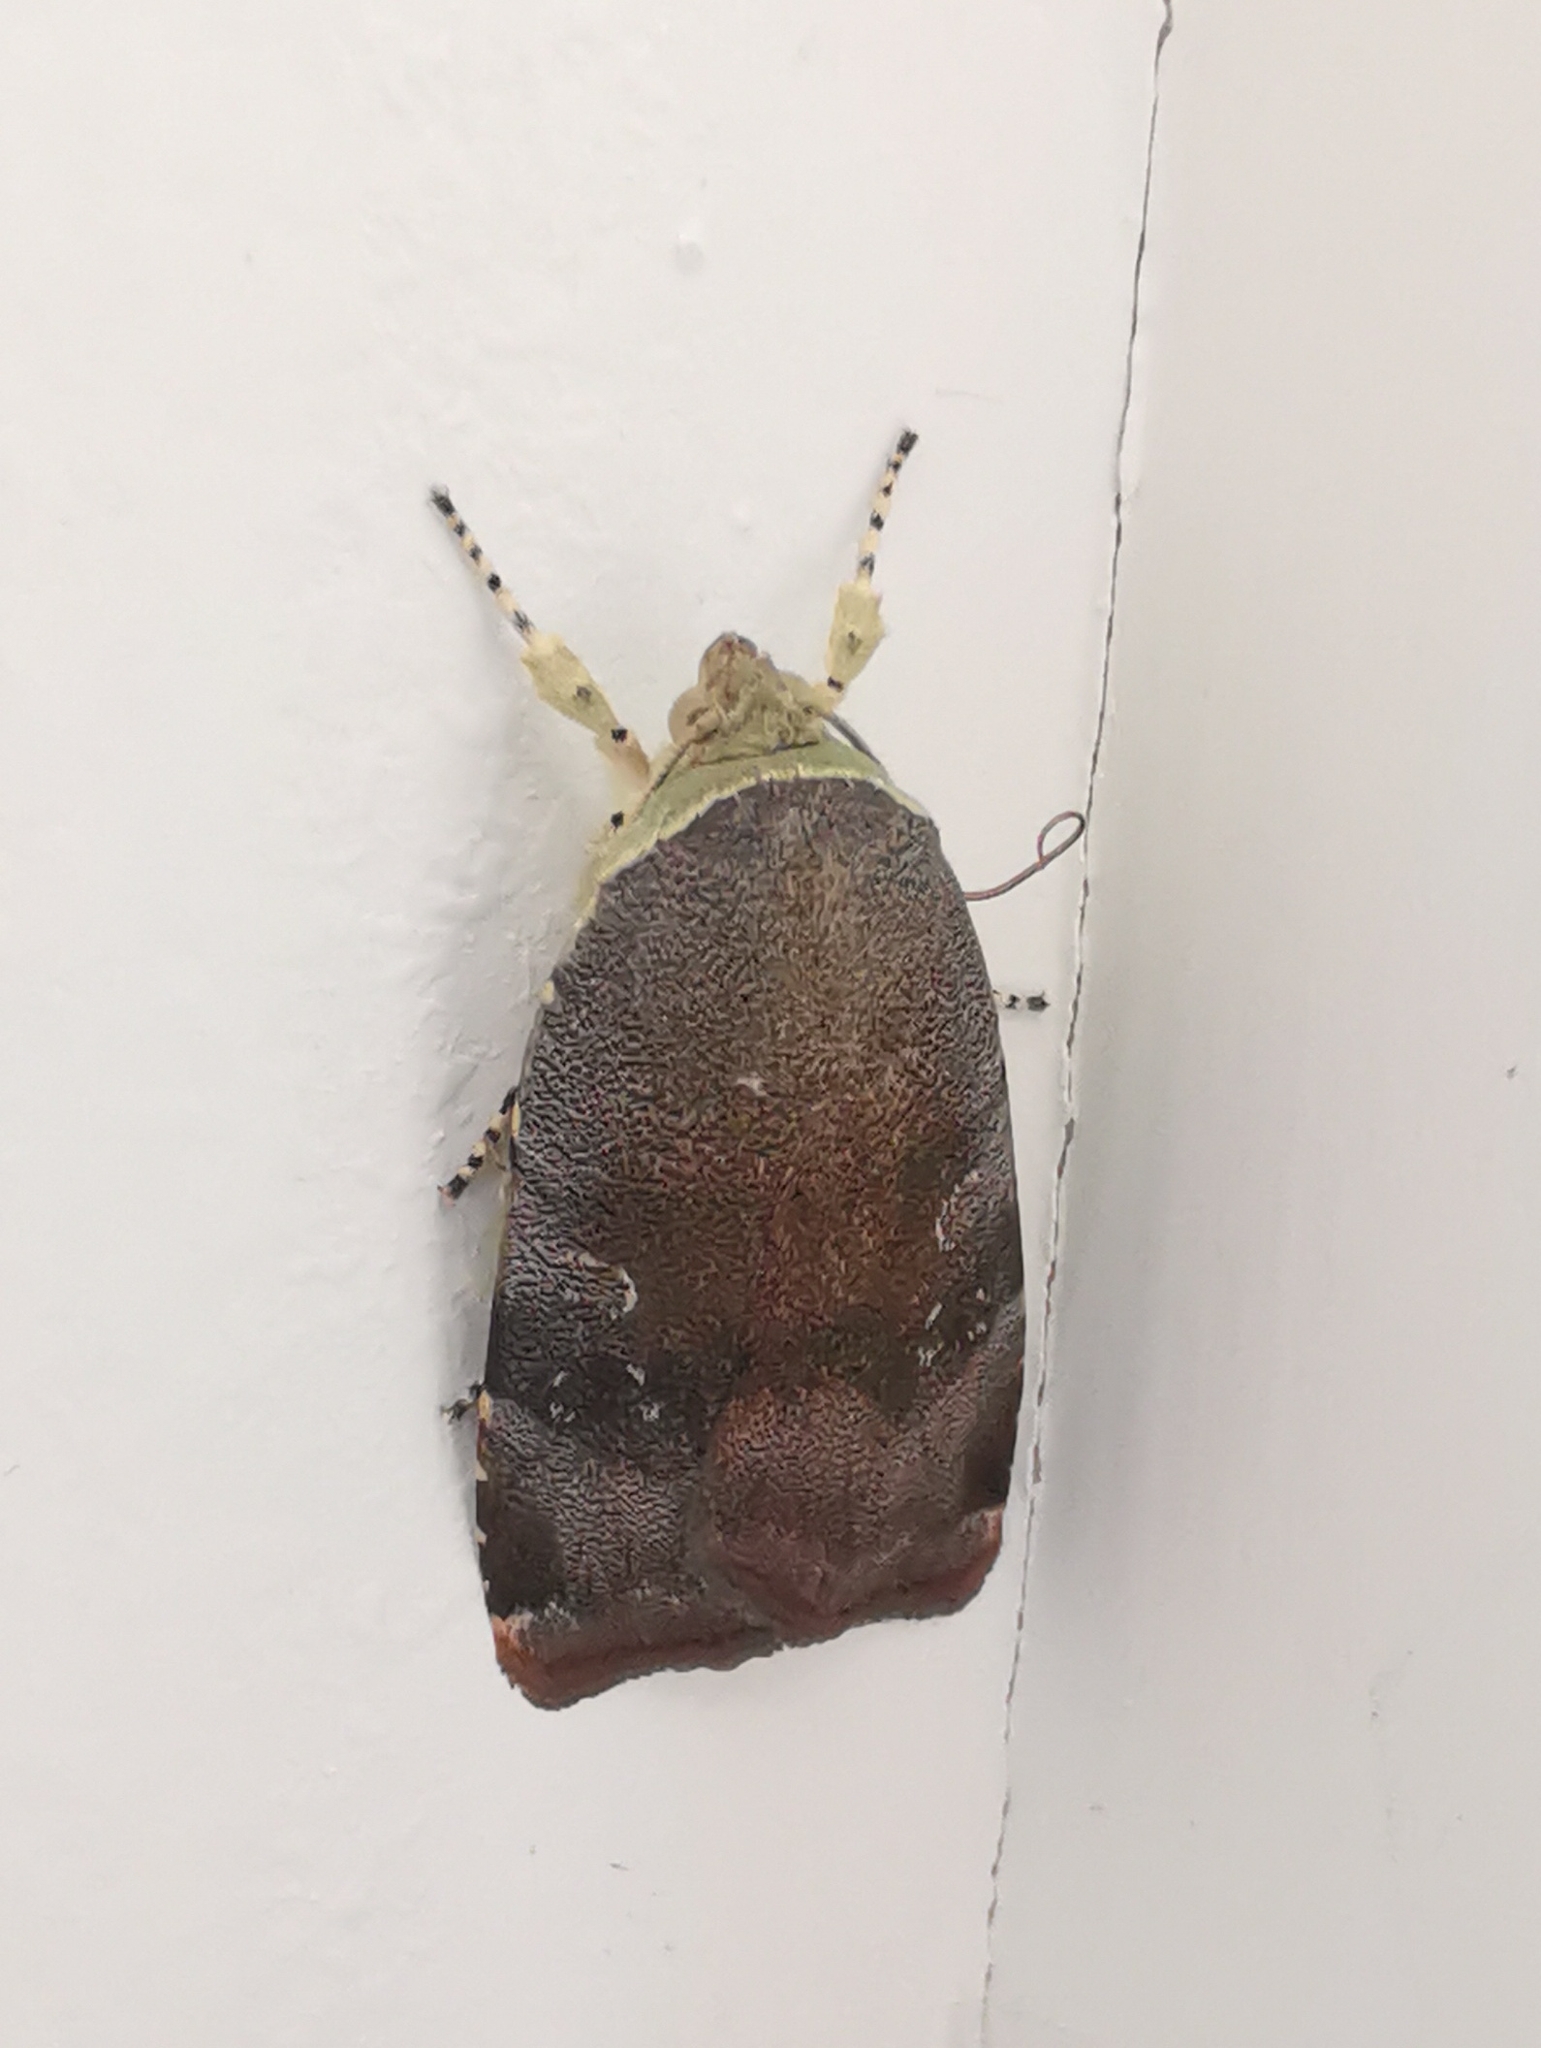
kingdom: Animalia
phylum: Arthropoda
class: Insecta
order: Lepidoptera
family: Noctuidae
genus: Noctua
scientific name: Noctua janthina
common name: Langmaid's yellow underwing
